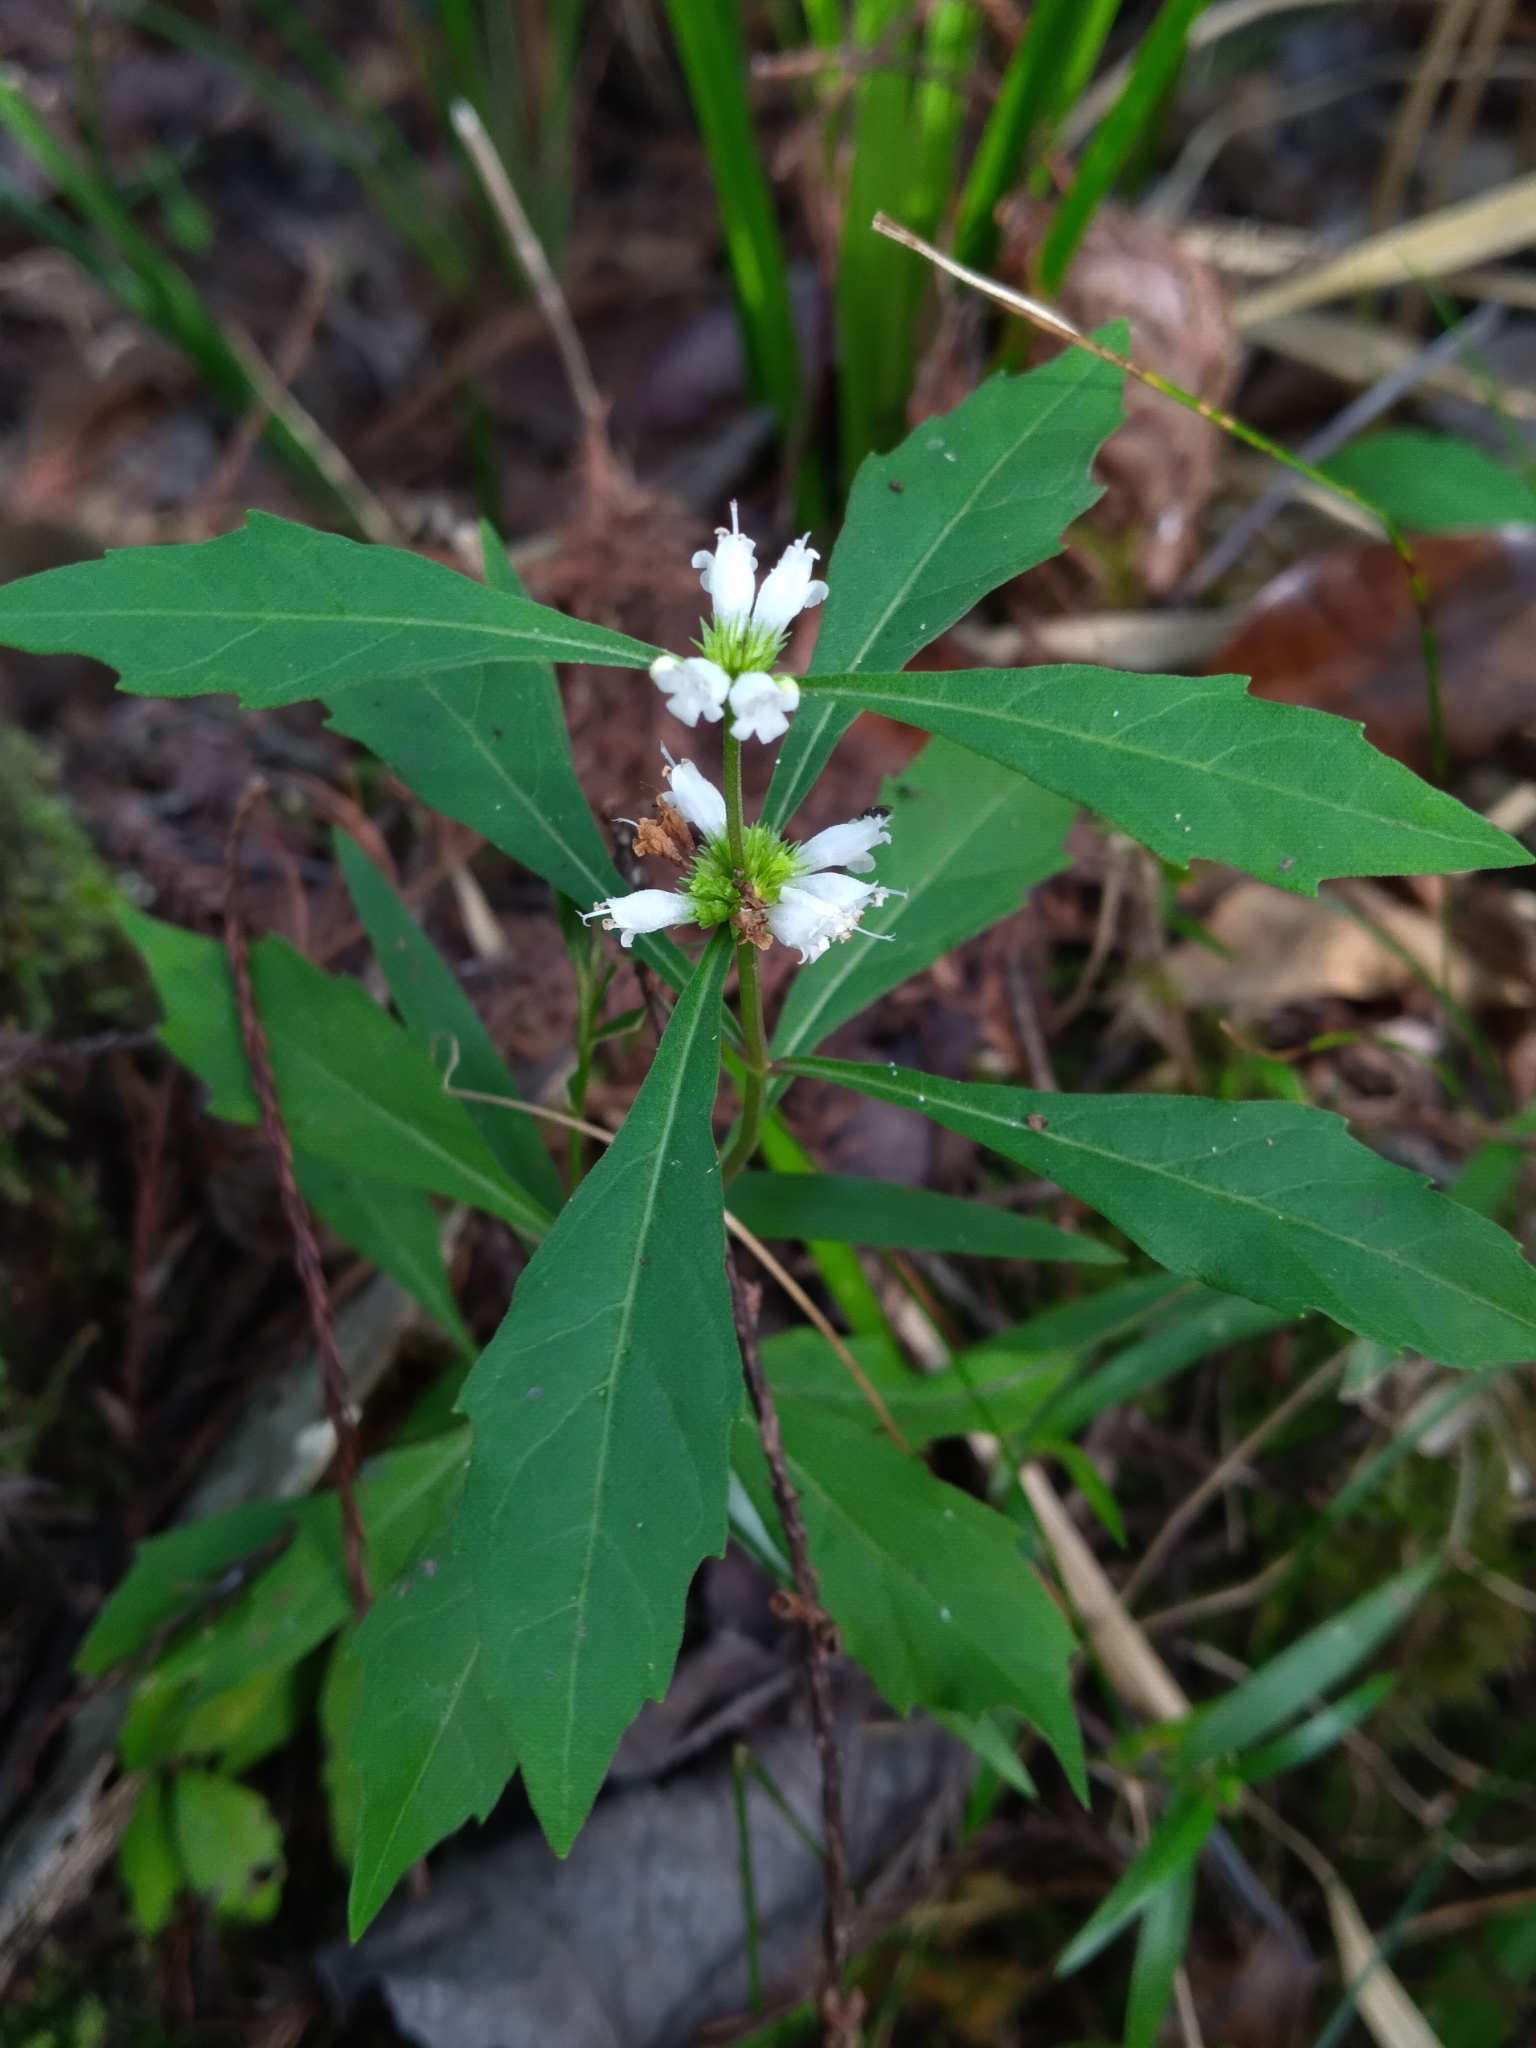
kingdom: Plantae
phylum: Tracheophyta
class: Magnoliopsida
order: Lamiales
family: Lamiaceae
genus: Lycopus
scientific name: Lycopus rubellus
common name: Stalked bugleweed
